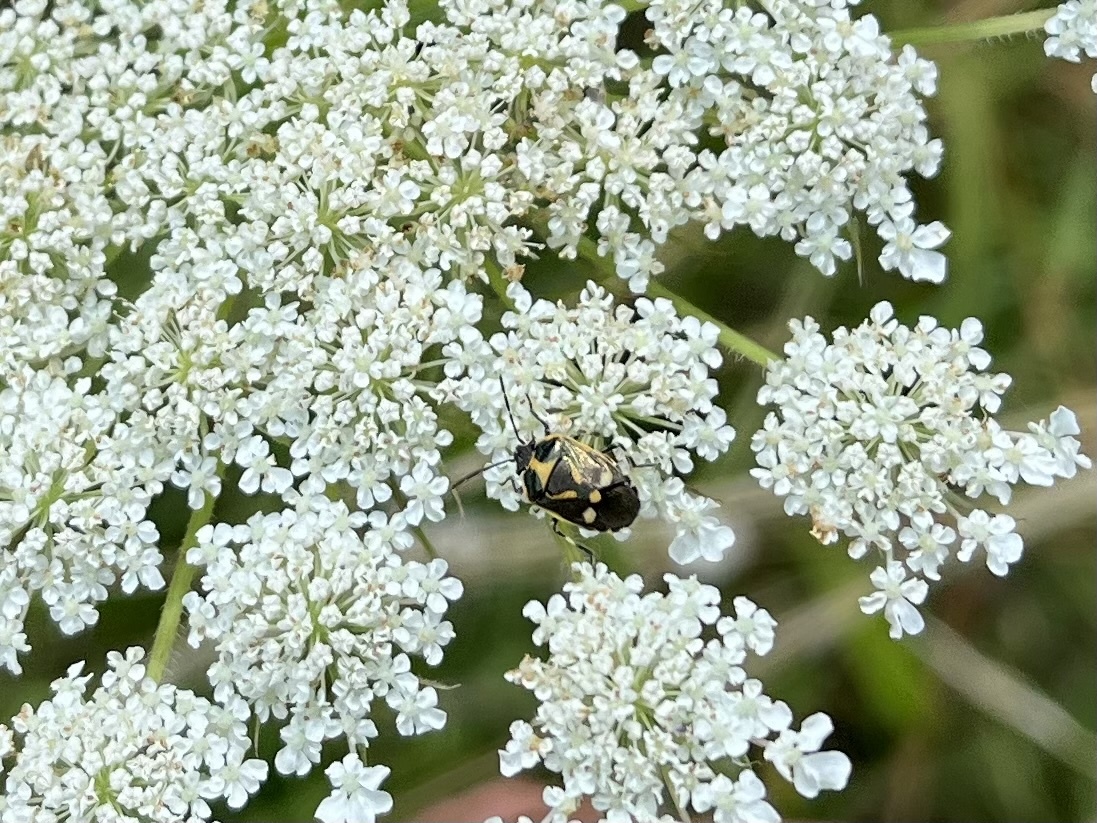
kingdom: Animalia
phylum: Arthropoda
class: Insecta
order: Hemiptera
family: Pentatomidae
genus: Eurydema
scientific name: Eurydema oleracea
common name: Cabbage bug
